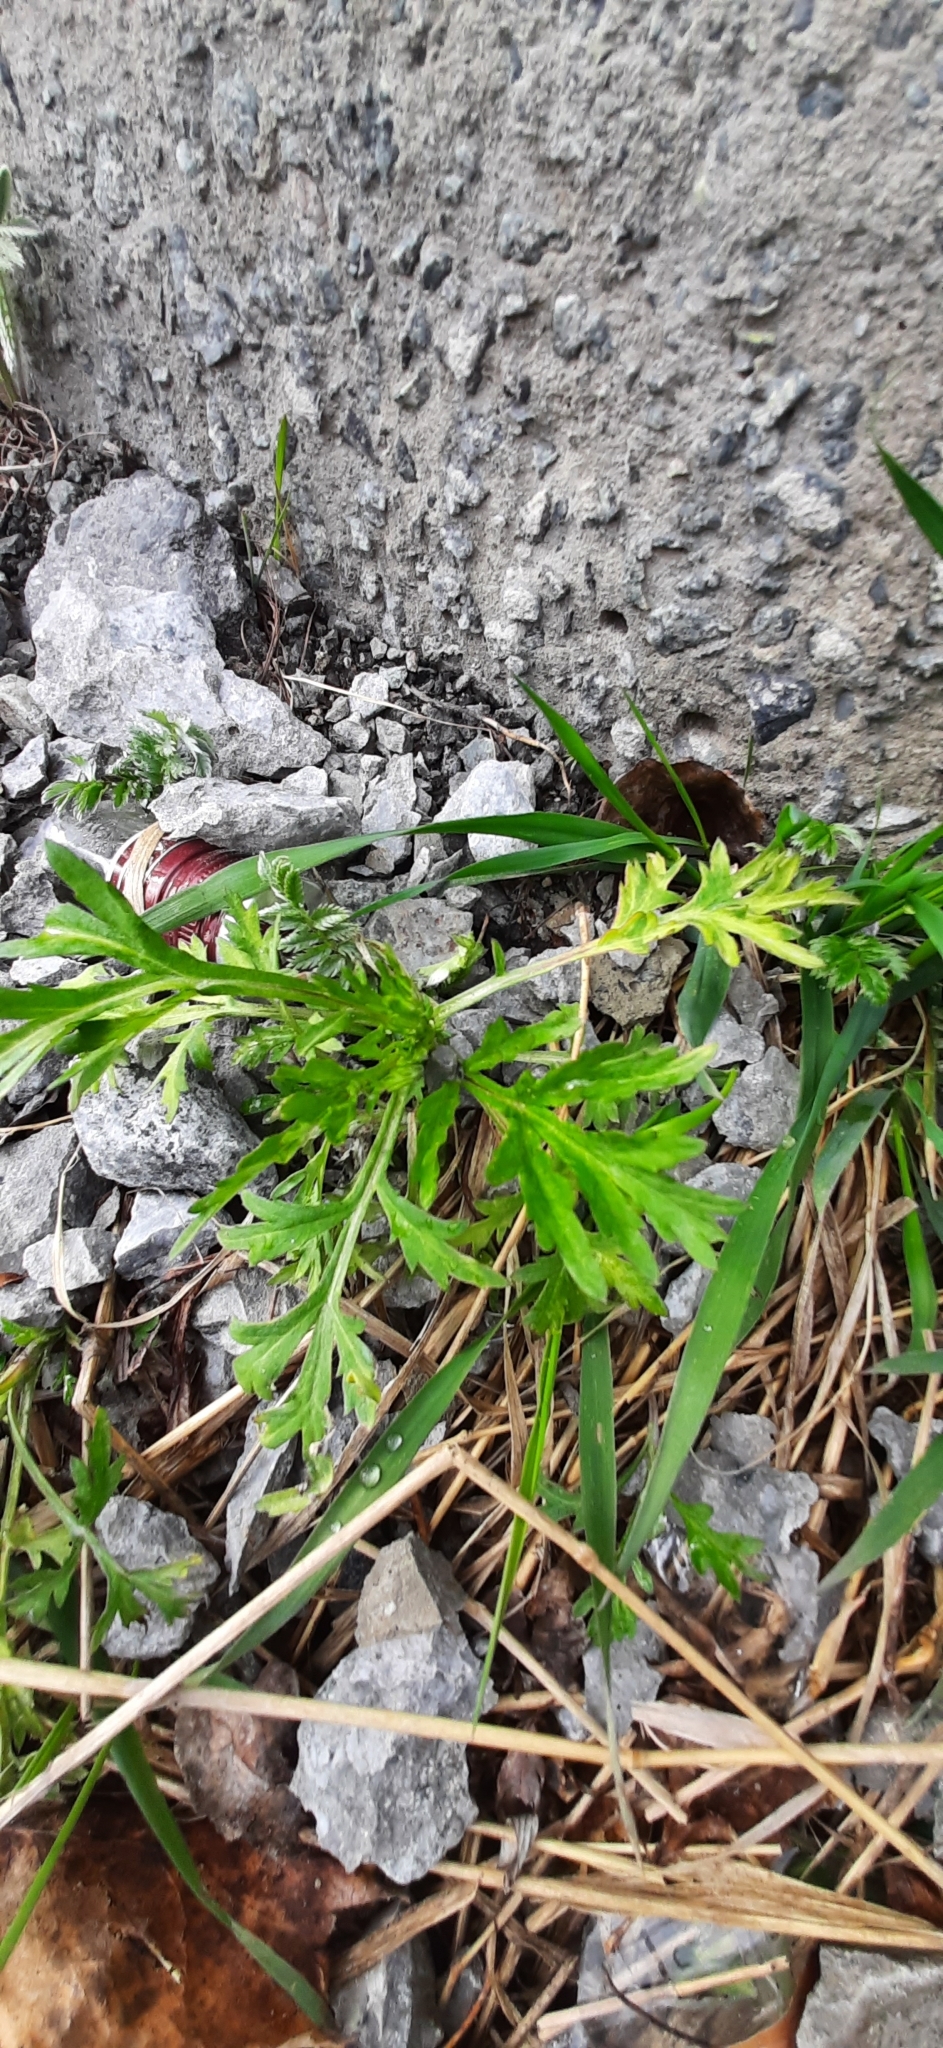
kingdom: Plantae
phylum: Tracheophyta
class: Magnoliopsida
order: Asterales
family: Asteraceae
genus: Artemisia
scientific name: Artemisia vulgaris
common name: Mugwort
